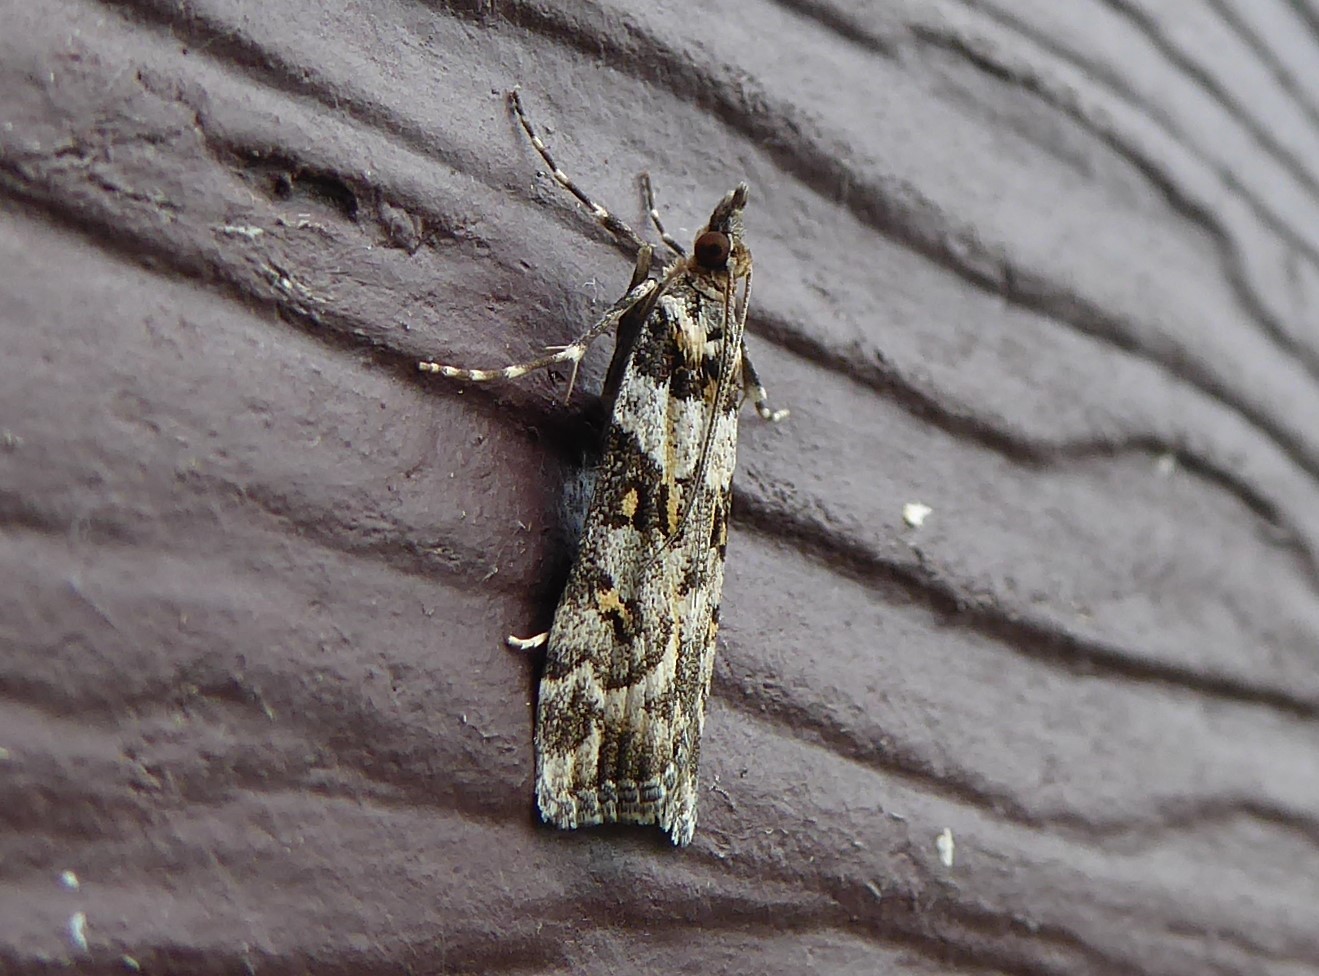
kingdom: Animalia
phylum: Arthropoda
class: Insecta
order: Lepidoptera
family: Crambidae
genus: Eudonia
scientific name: Eudonia diphtheralis
